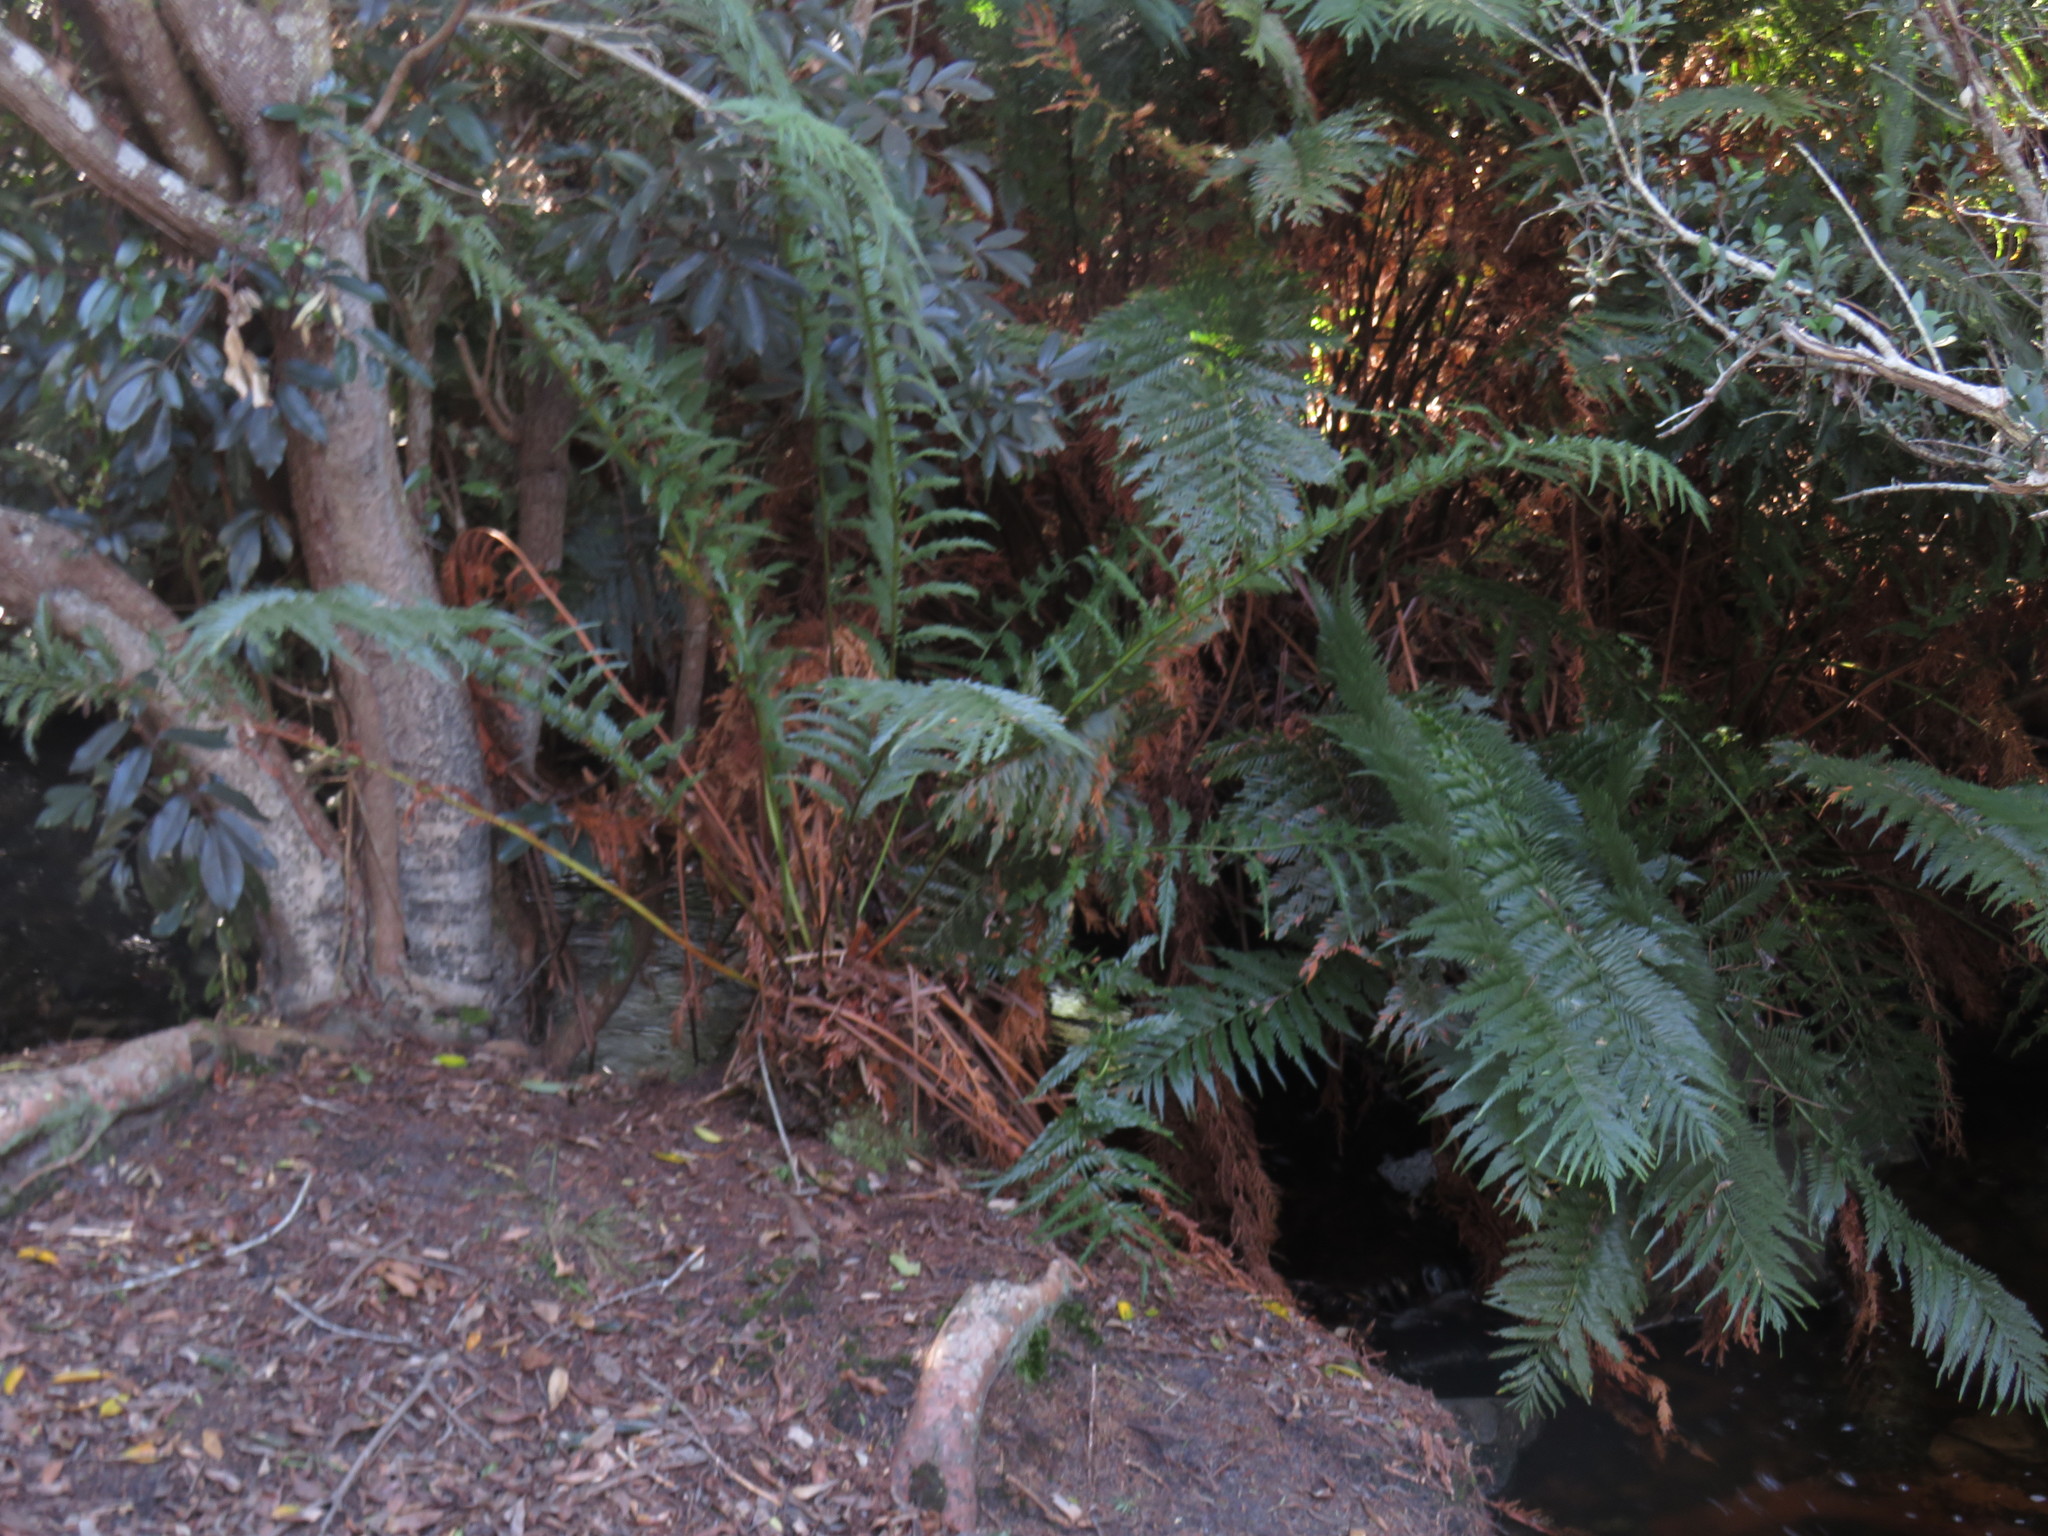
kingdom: Plantae
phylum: Tracheophyta
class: Polypodiopsida
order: Osmundales
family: Osmundaceae
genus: Todea
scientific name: Todea barbara
